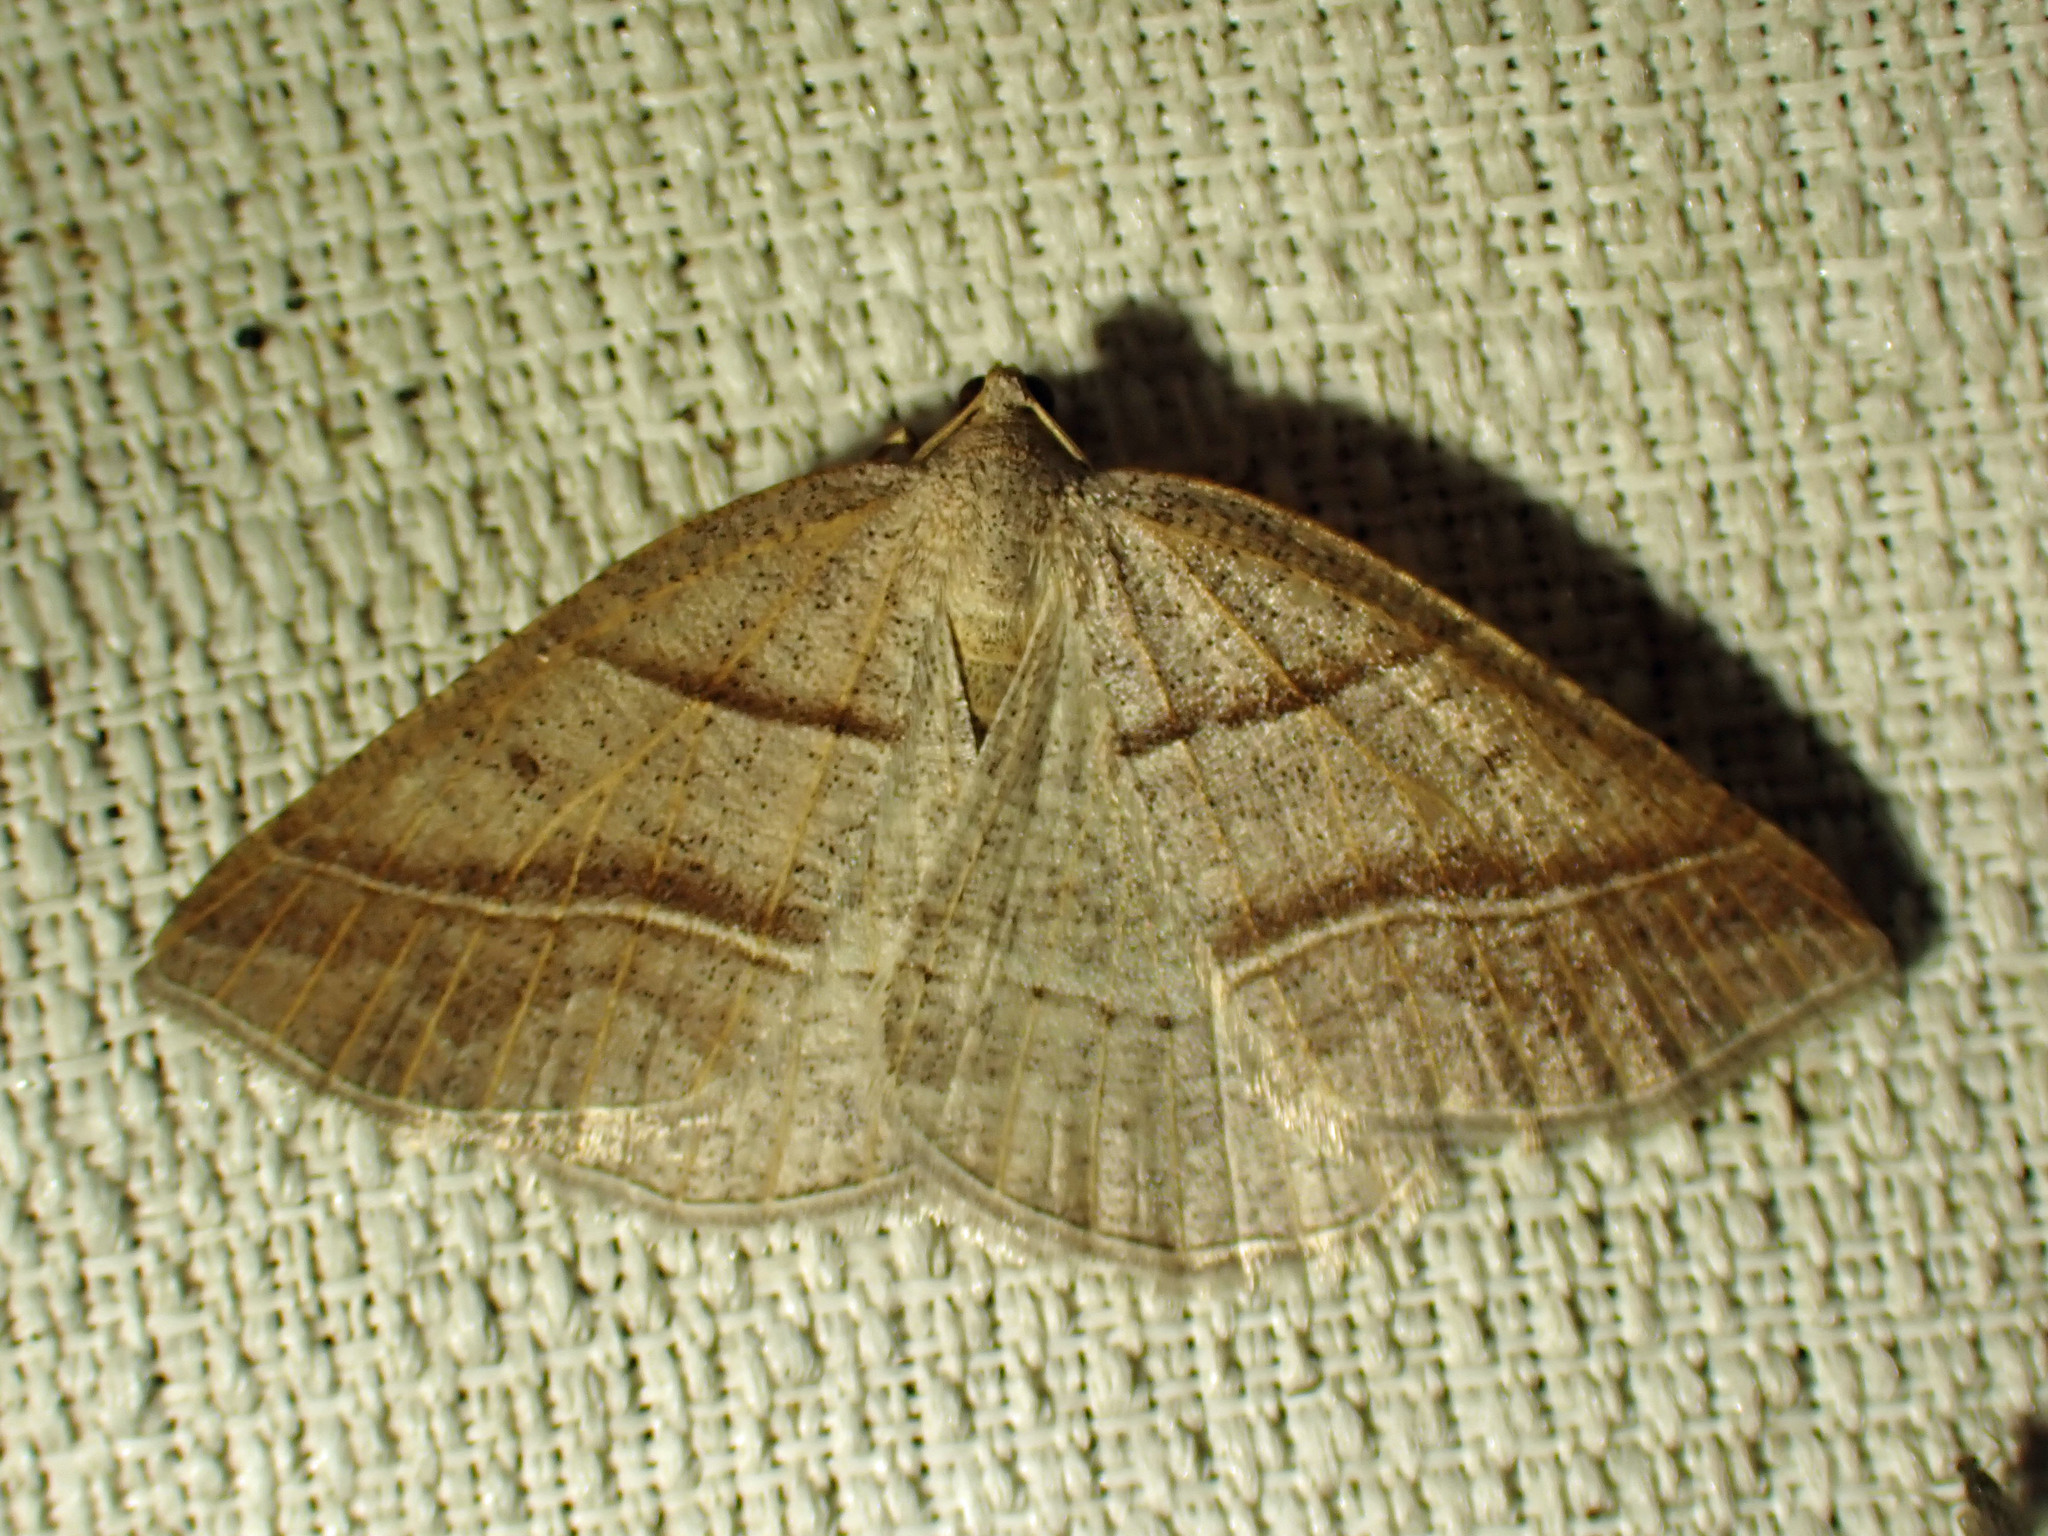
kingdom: Animalia
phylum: Arthropoda
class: Insecta
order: Lepidoptera
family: Pterophoridae
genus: Pterophorus
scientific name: Pterophorus Petrophora subaequaria
